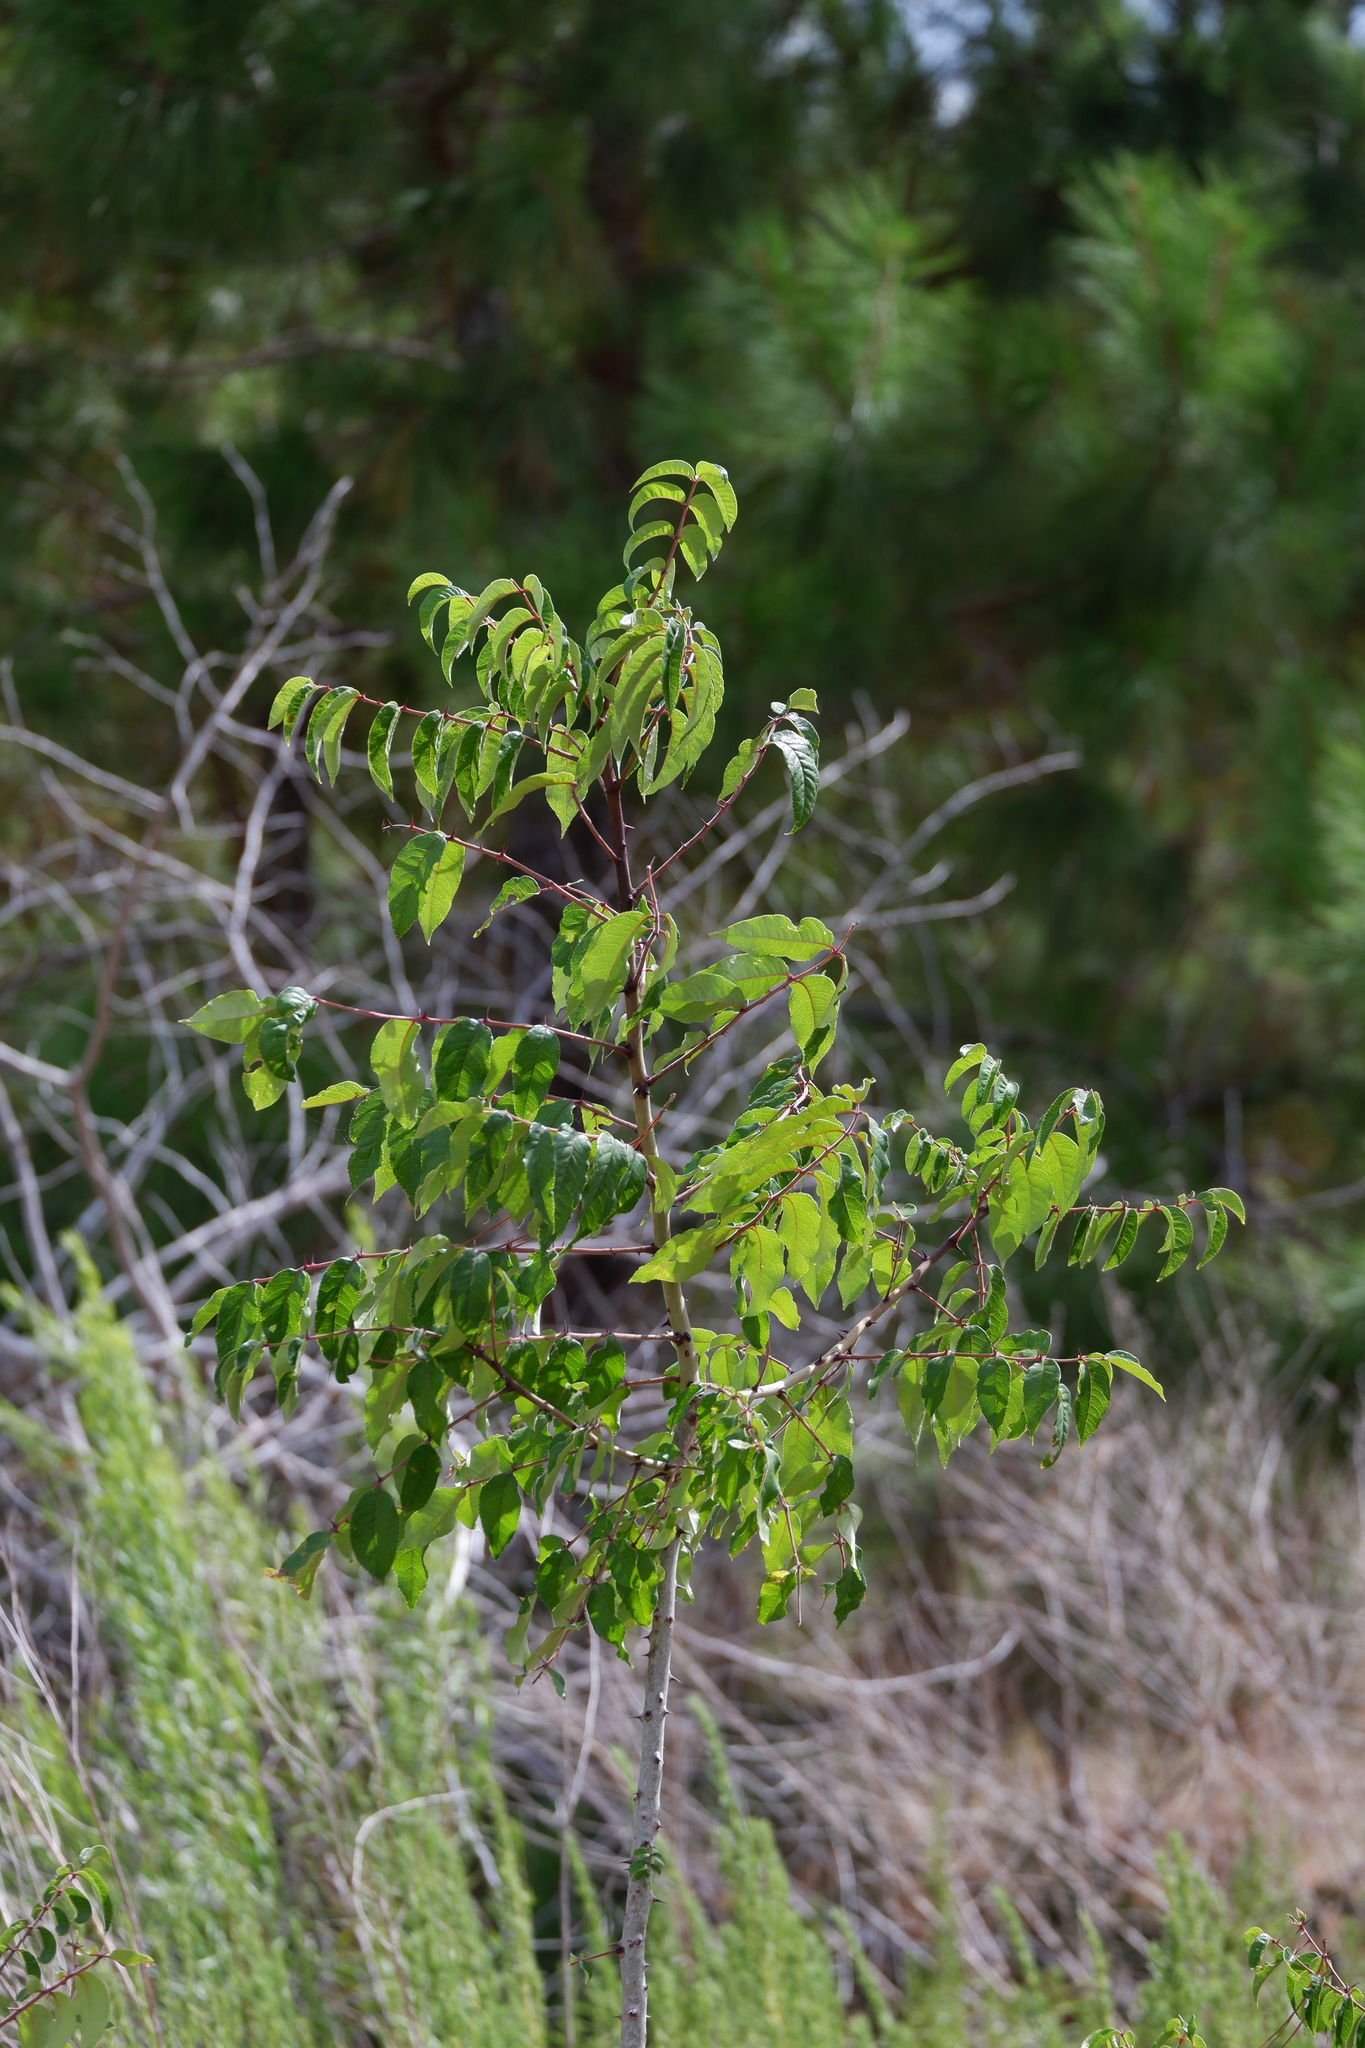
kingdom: Plantae
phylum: Tracheophyta
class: Magnoliopsida
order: Sapindales
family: Rutaceae
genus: Zanthoxylum
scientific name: Zanthoxylum clava-herculis
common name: Hercules'-club
